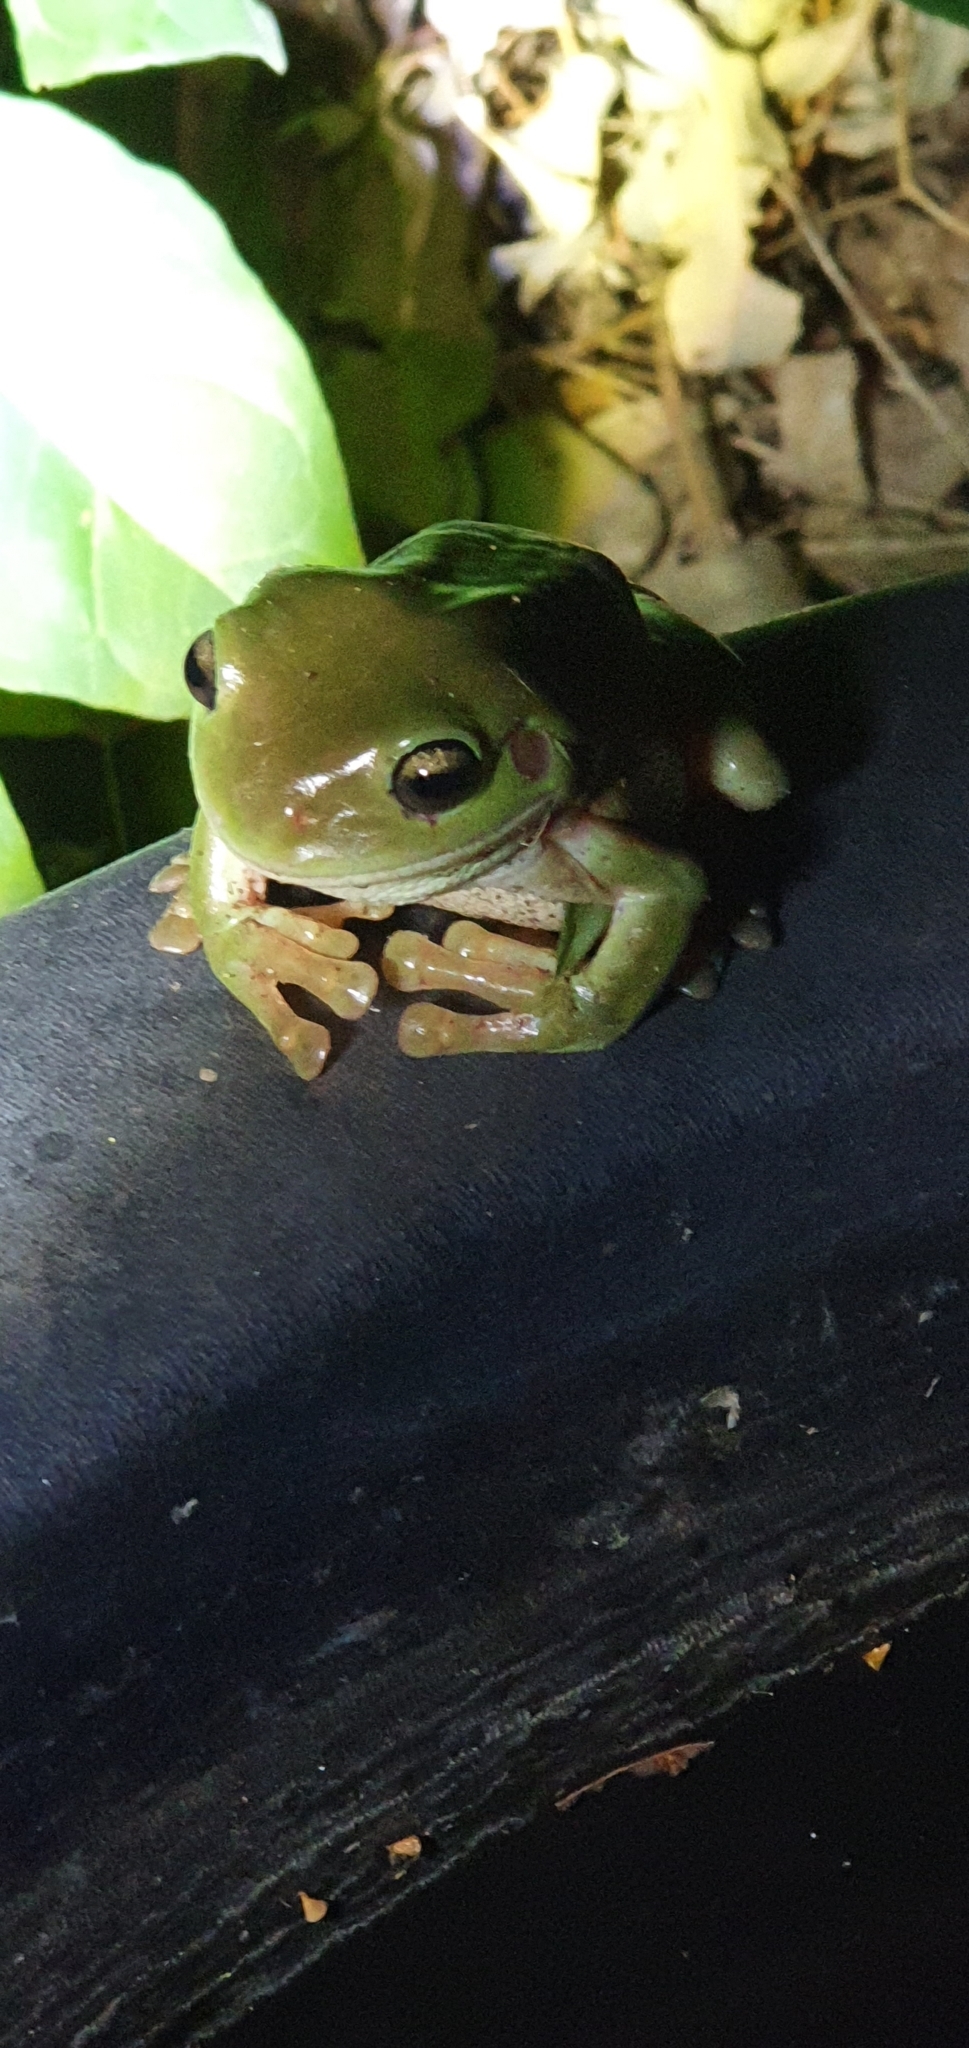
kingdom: Animalia
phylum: Chordata
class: Amphibia
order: Anura
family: Pelodryadidae
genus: Ranoidea
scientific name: Ranoidea caerulea
